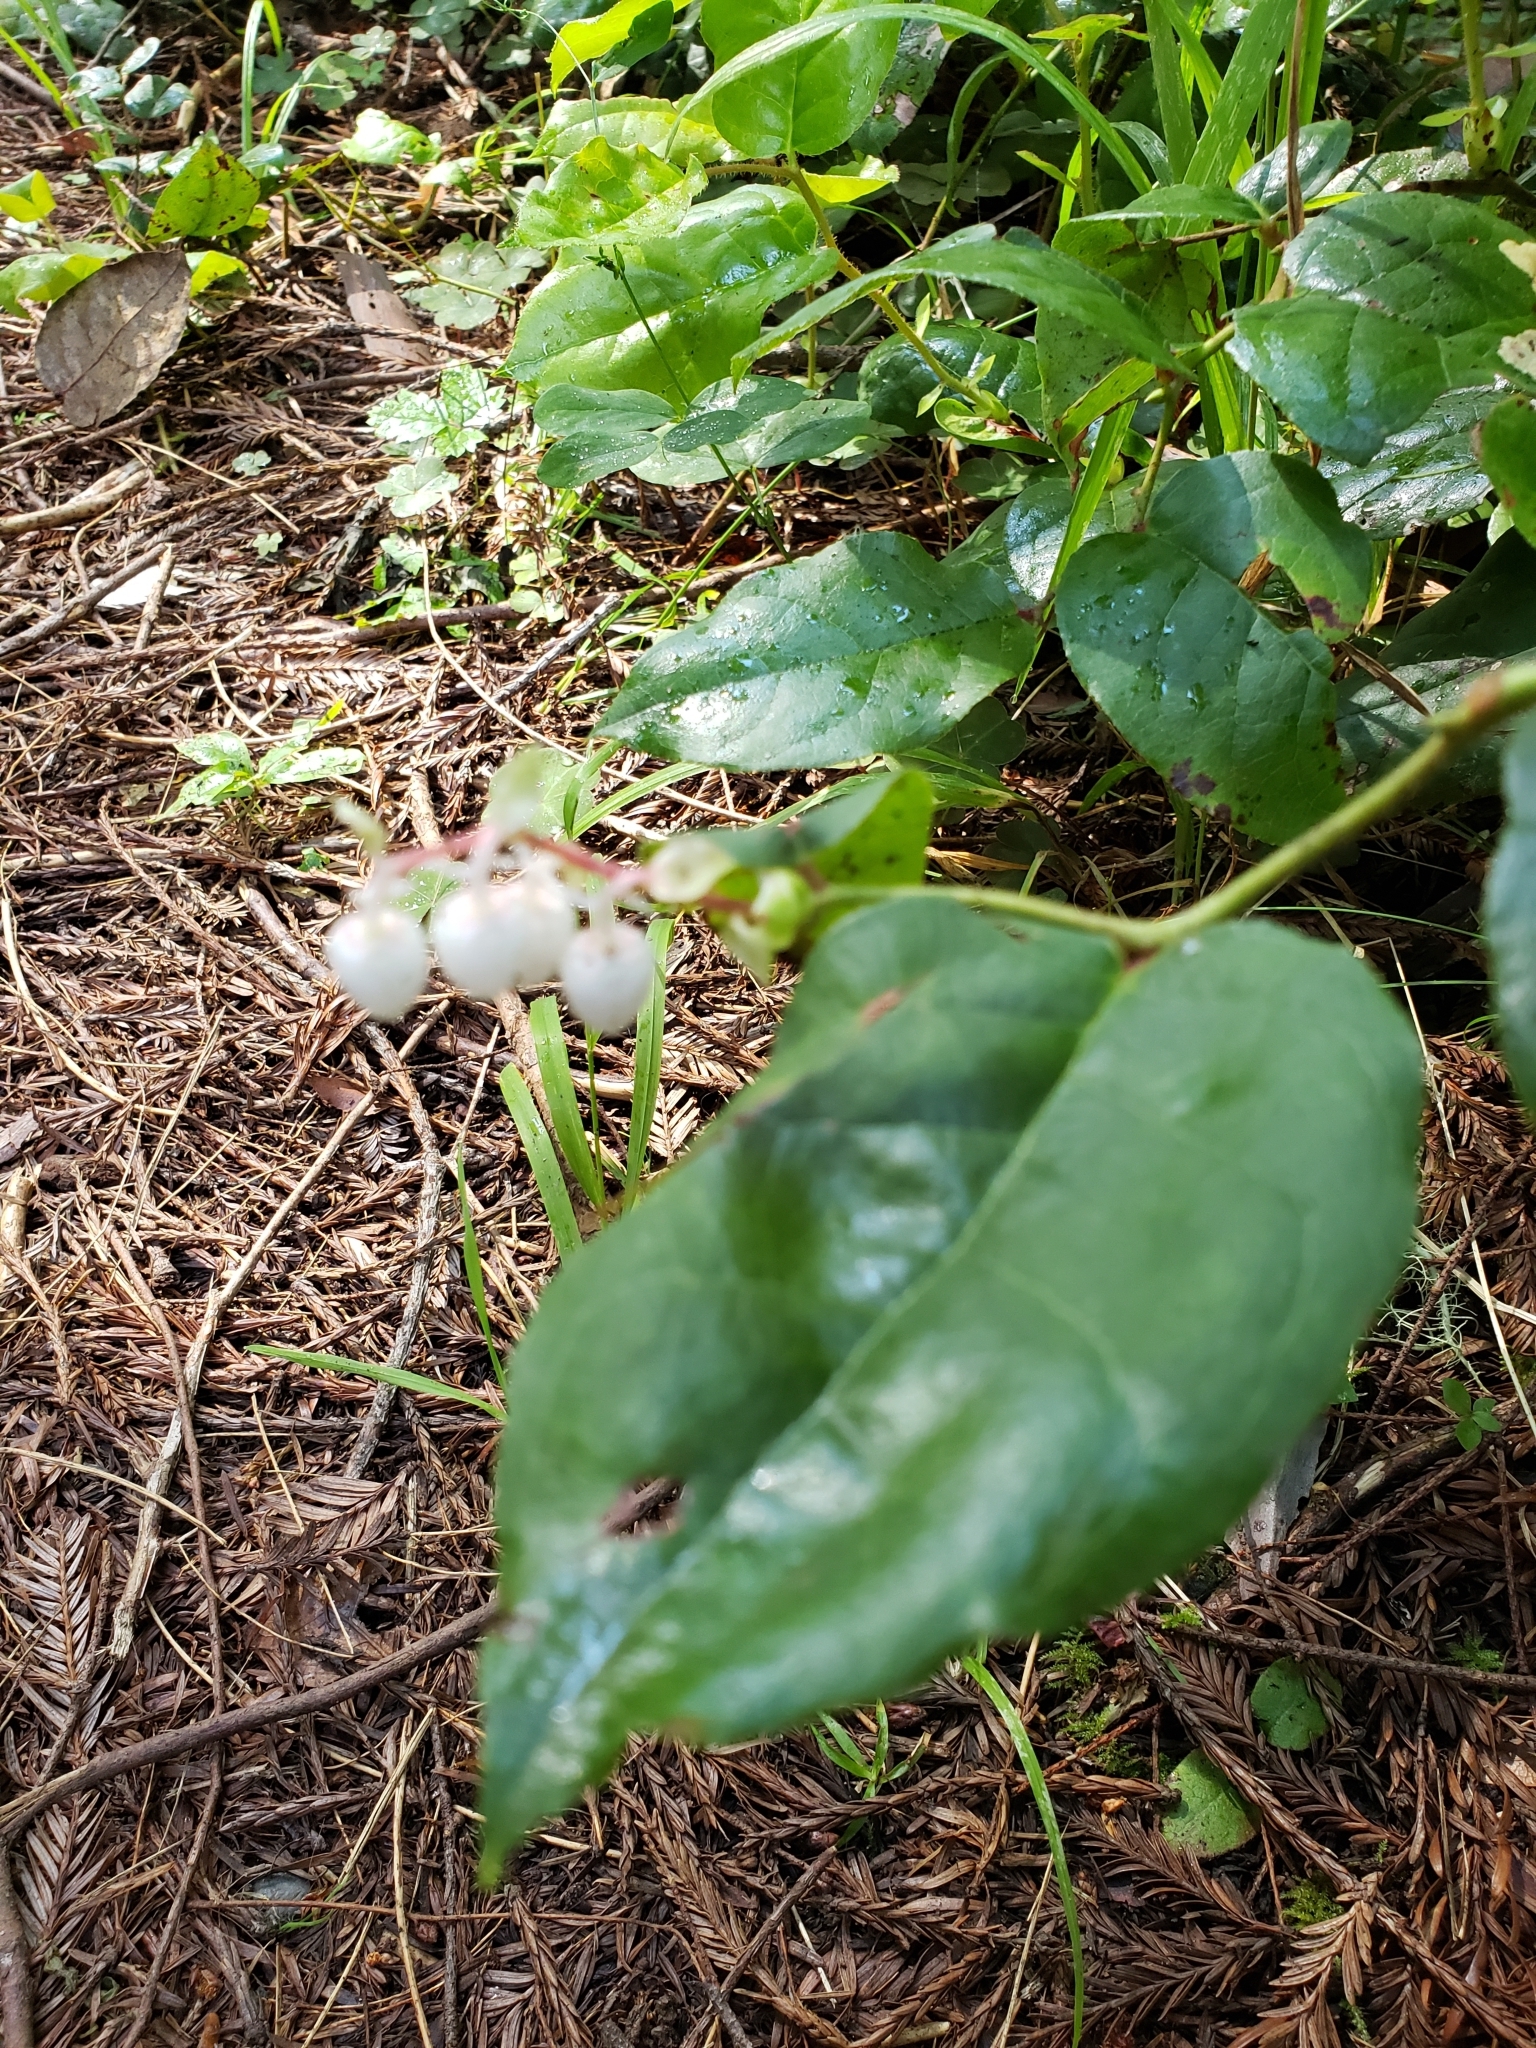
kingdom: Plantae
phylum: Tracheophyta
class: Magnoliopsida
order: Ericales
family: Ericaceae
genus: Gaultheria
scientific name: Gaultheria shallon
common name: Shallon
